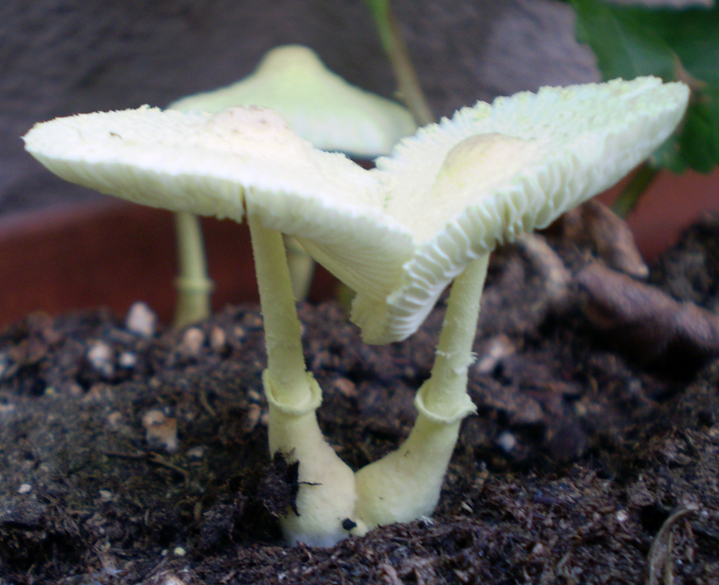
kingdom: Fungi
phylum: Basidiomycota
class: Agaricomycetes
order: Agaricales
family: Agaricaceae
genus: Leucocoprinus
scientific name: Leucocoprinus birnbaumii
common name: Plantpot dapperling
